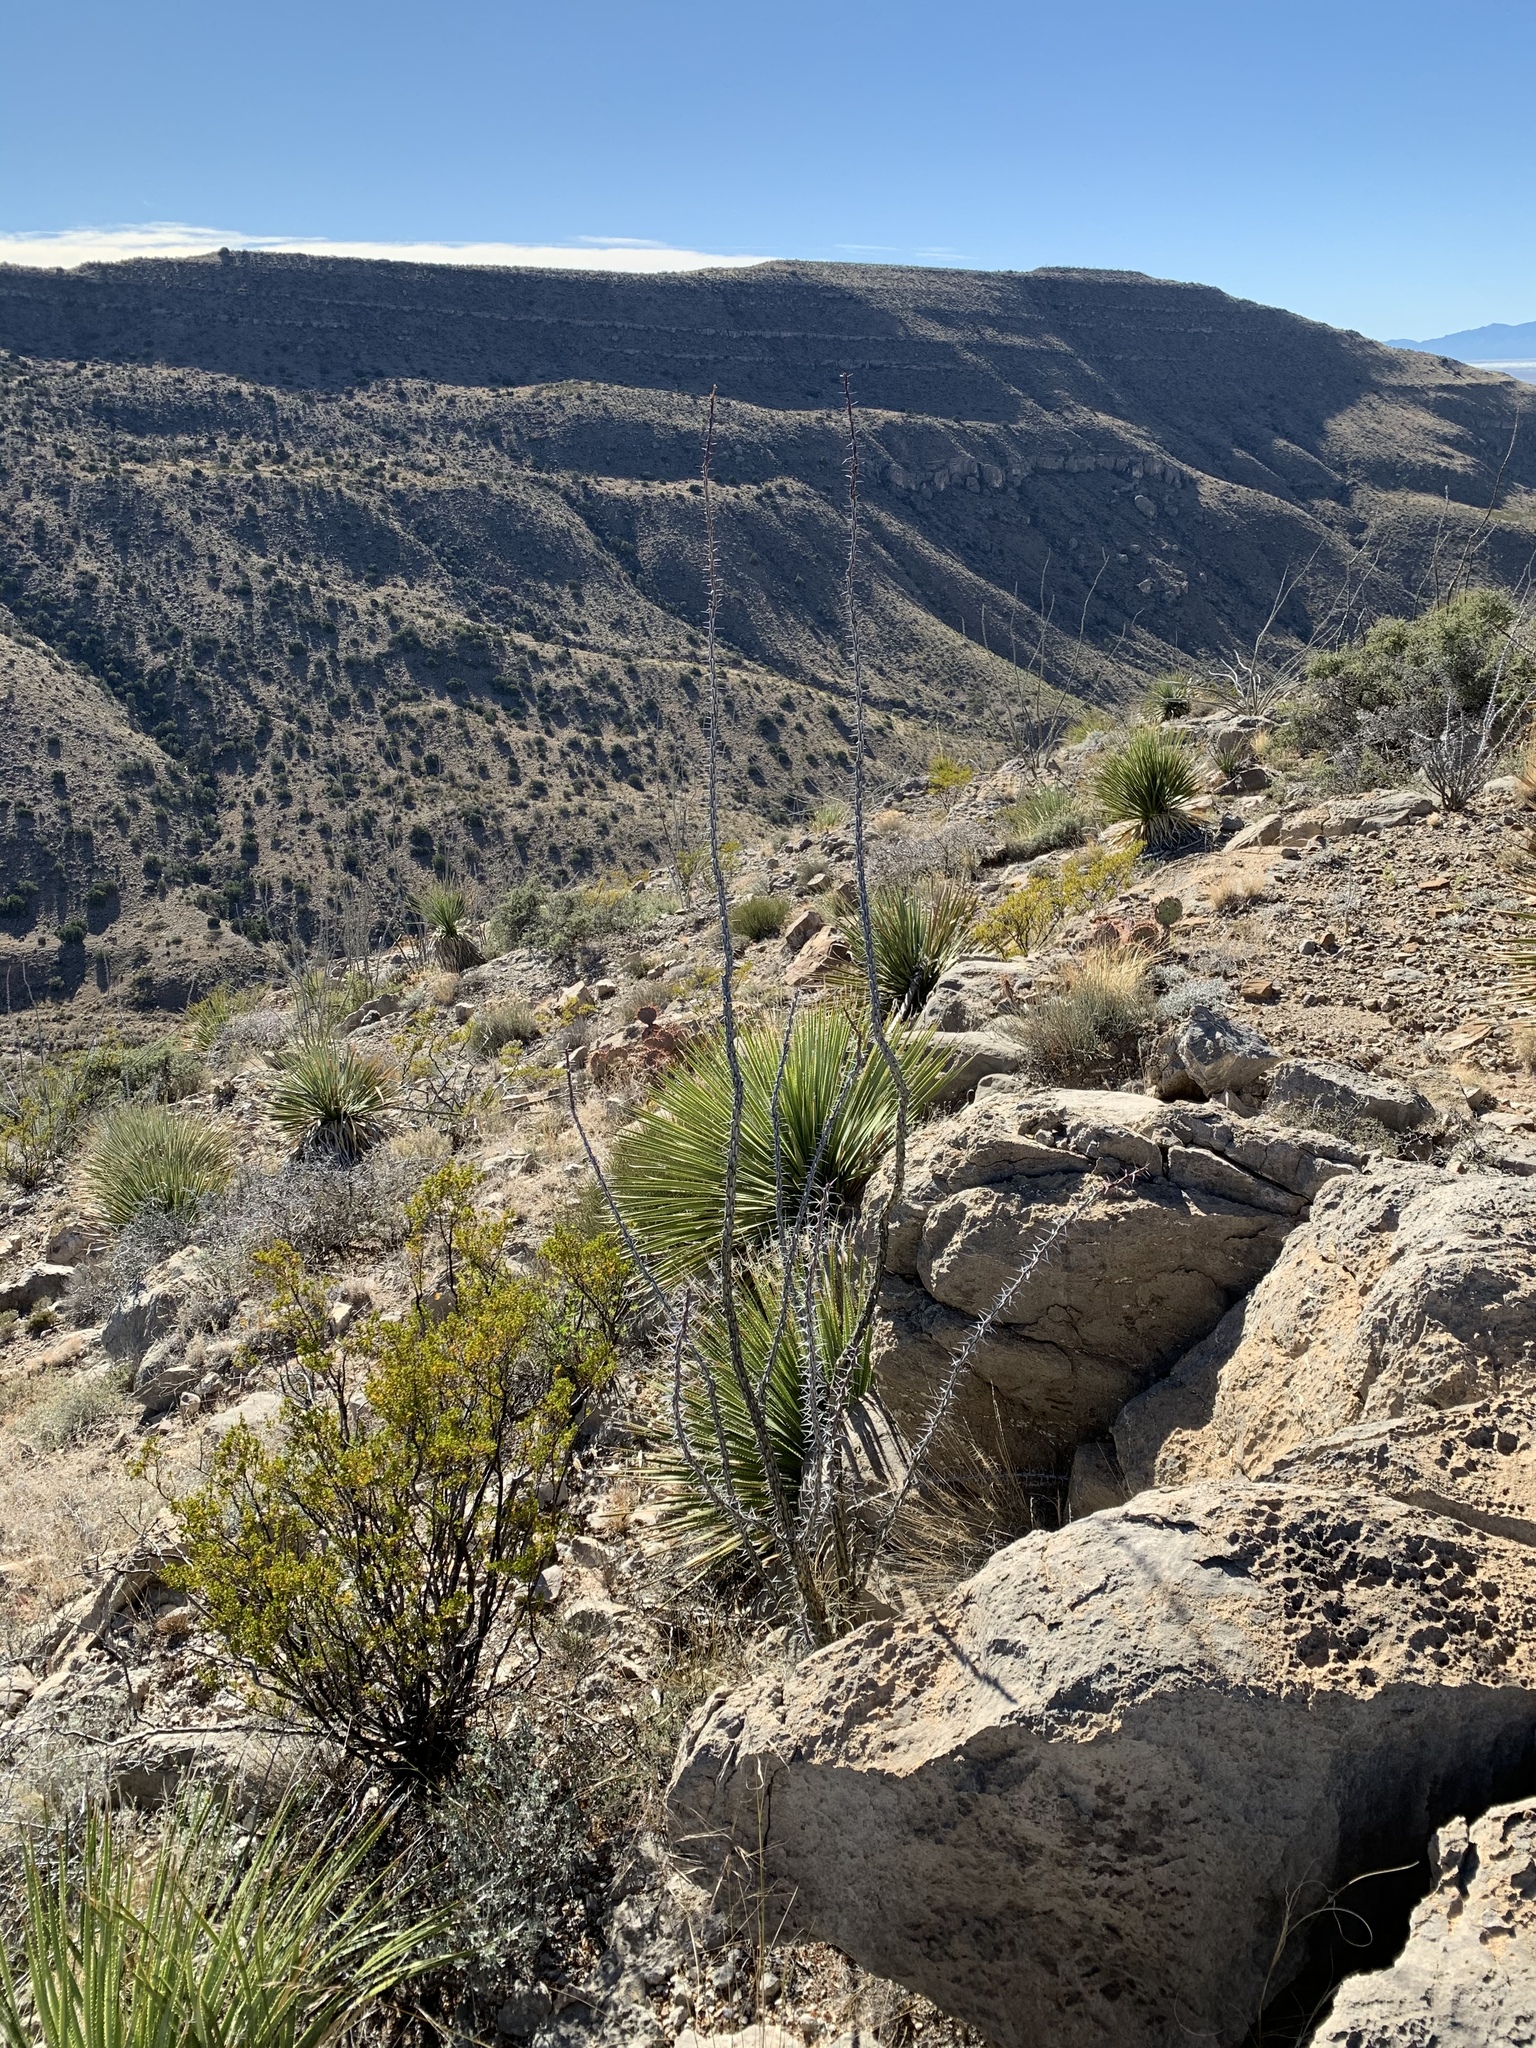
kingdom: Plantae
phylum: Tracheophyta
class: Magnoliopsida
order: Ericales
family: Fouquieriaceae
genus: Fouquieria
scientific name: Fouquieria splendens
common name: Vine-cactus
